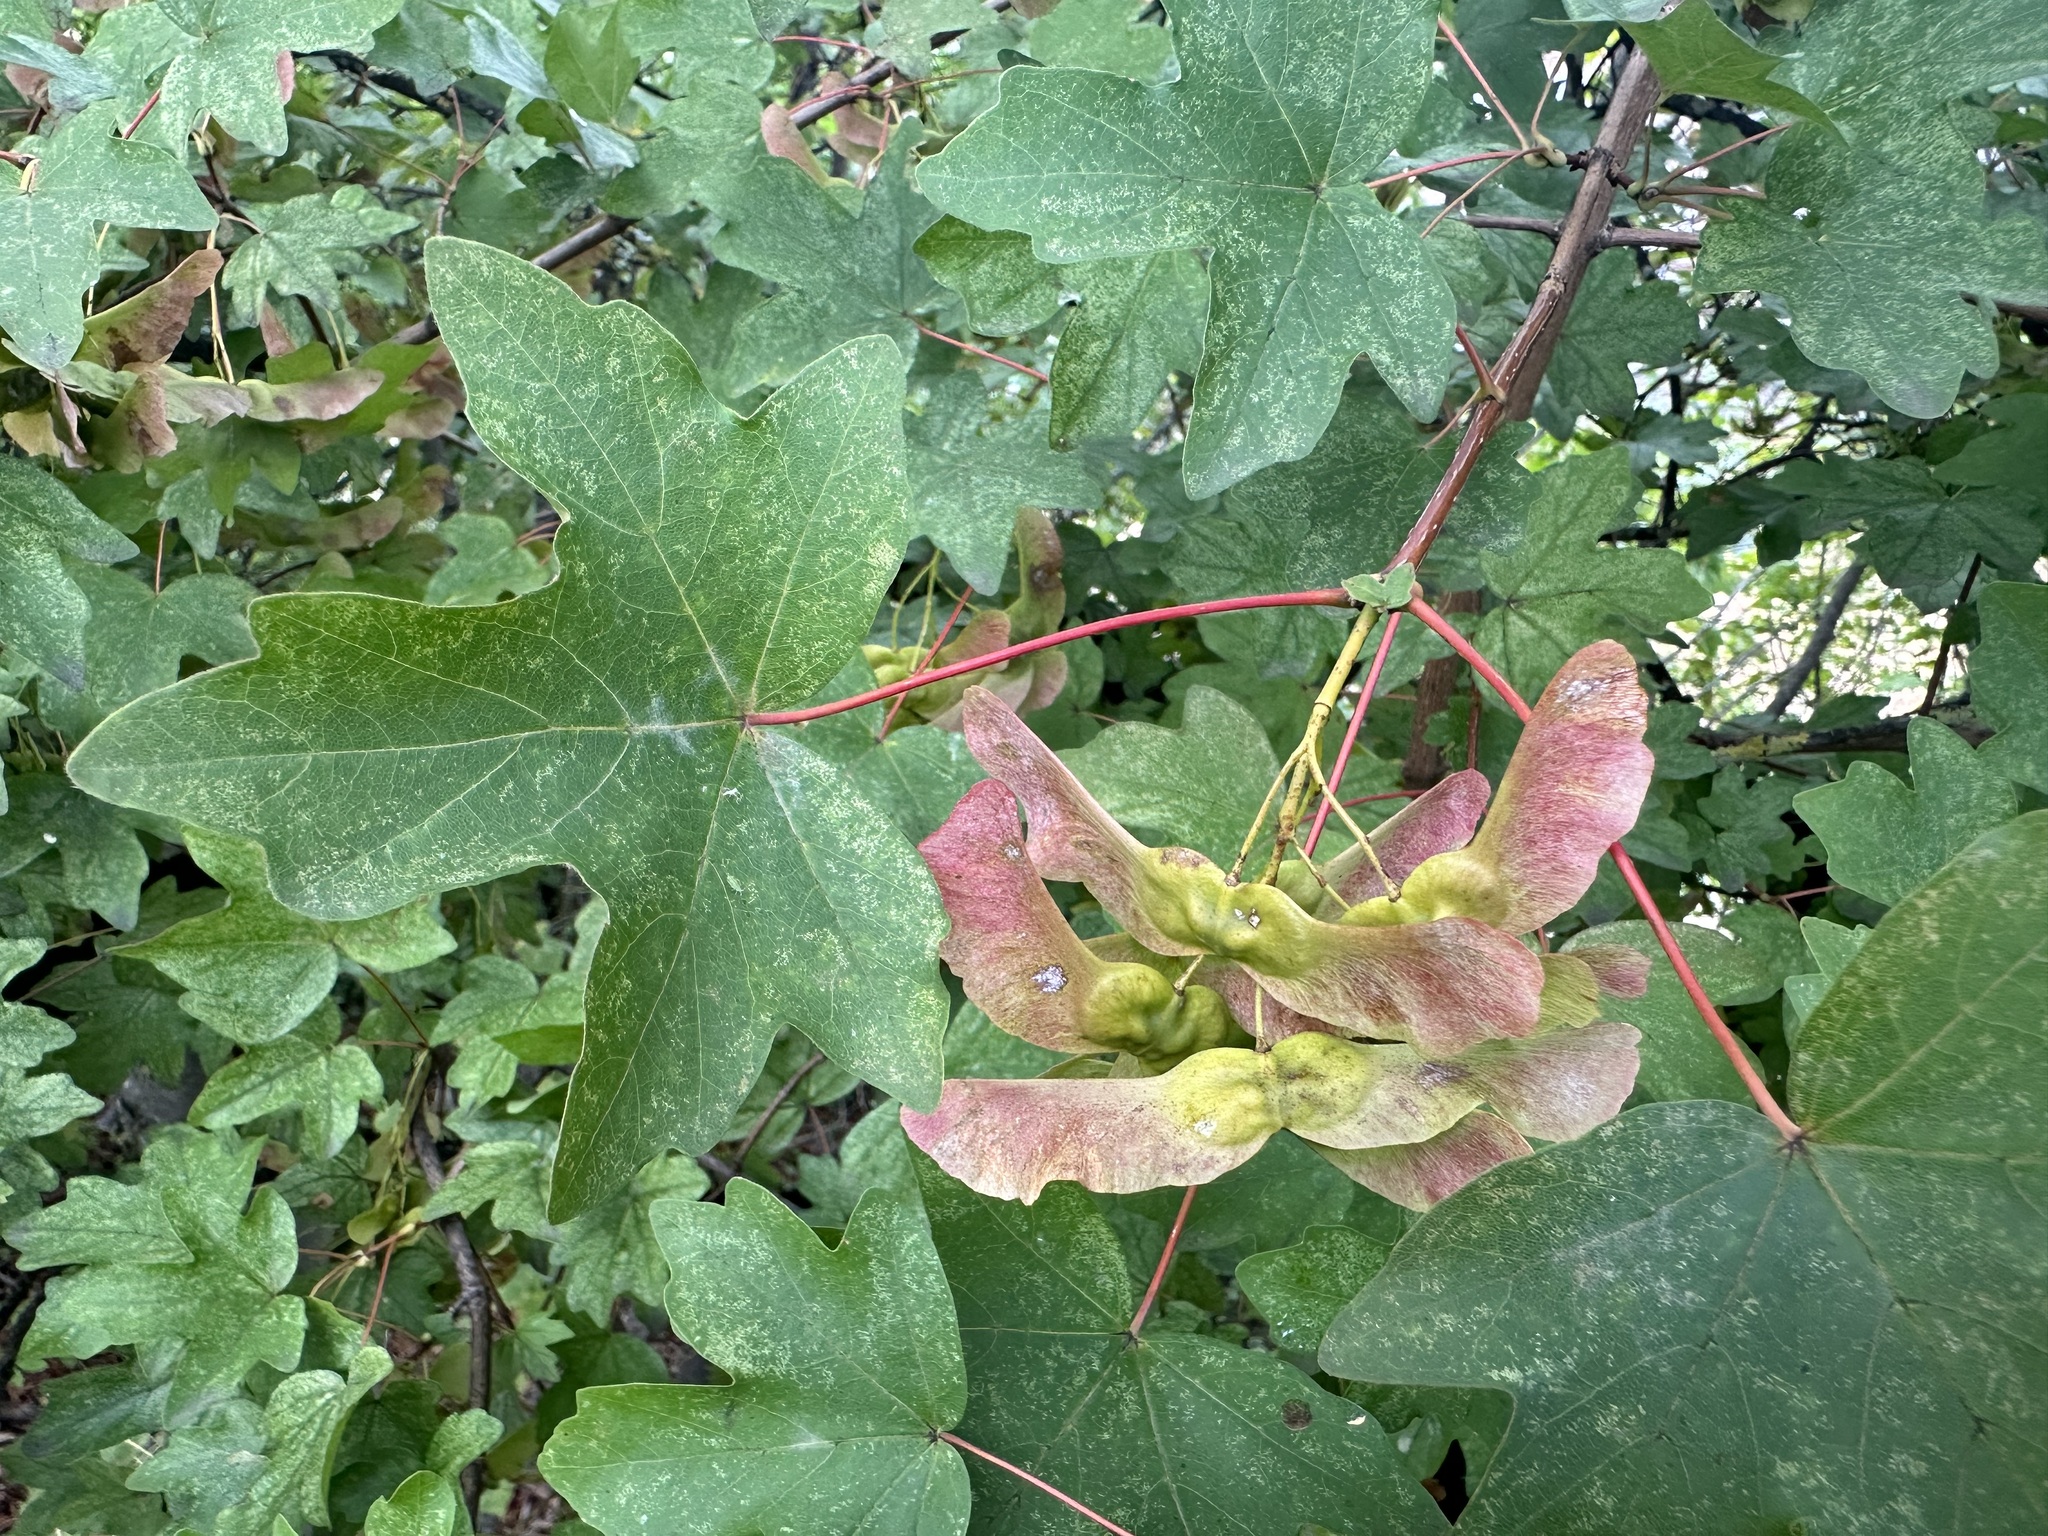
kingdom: Plantae
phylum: Tracheophyta
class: Magnoliopsida
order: Sapindales
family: Sapindaceae
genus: Acer
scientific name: Acer campestre
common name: Field maple
